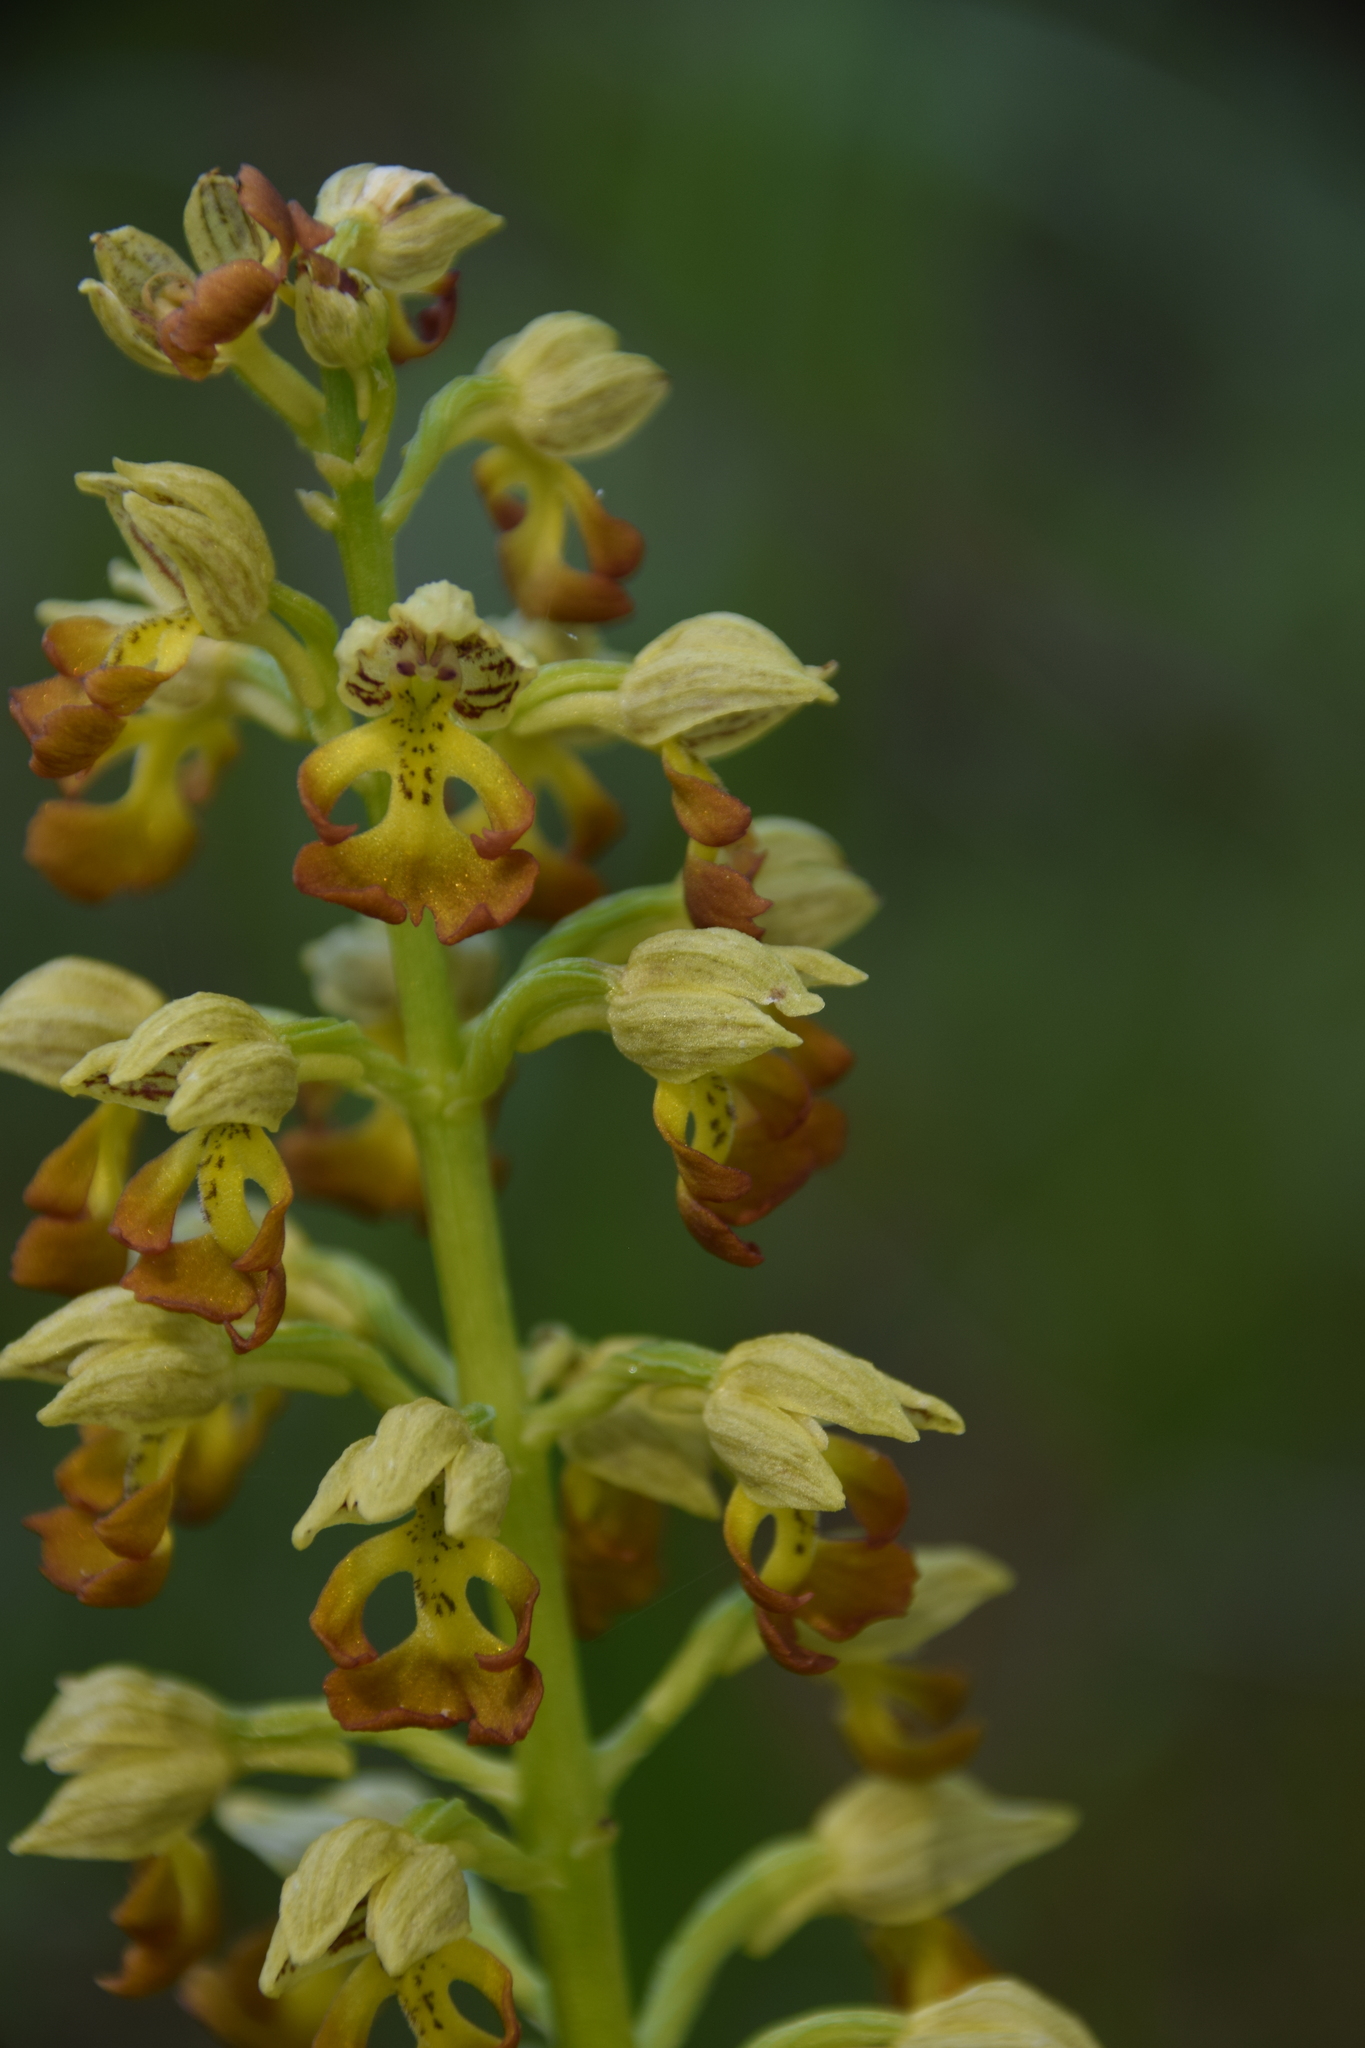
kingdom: Plantae
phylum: Tracheophyta
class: Liliopsida
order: Asparagales
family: Orchidaceae
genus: Orchis
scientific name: Orchis punctulata
